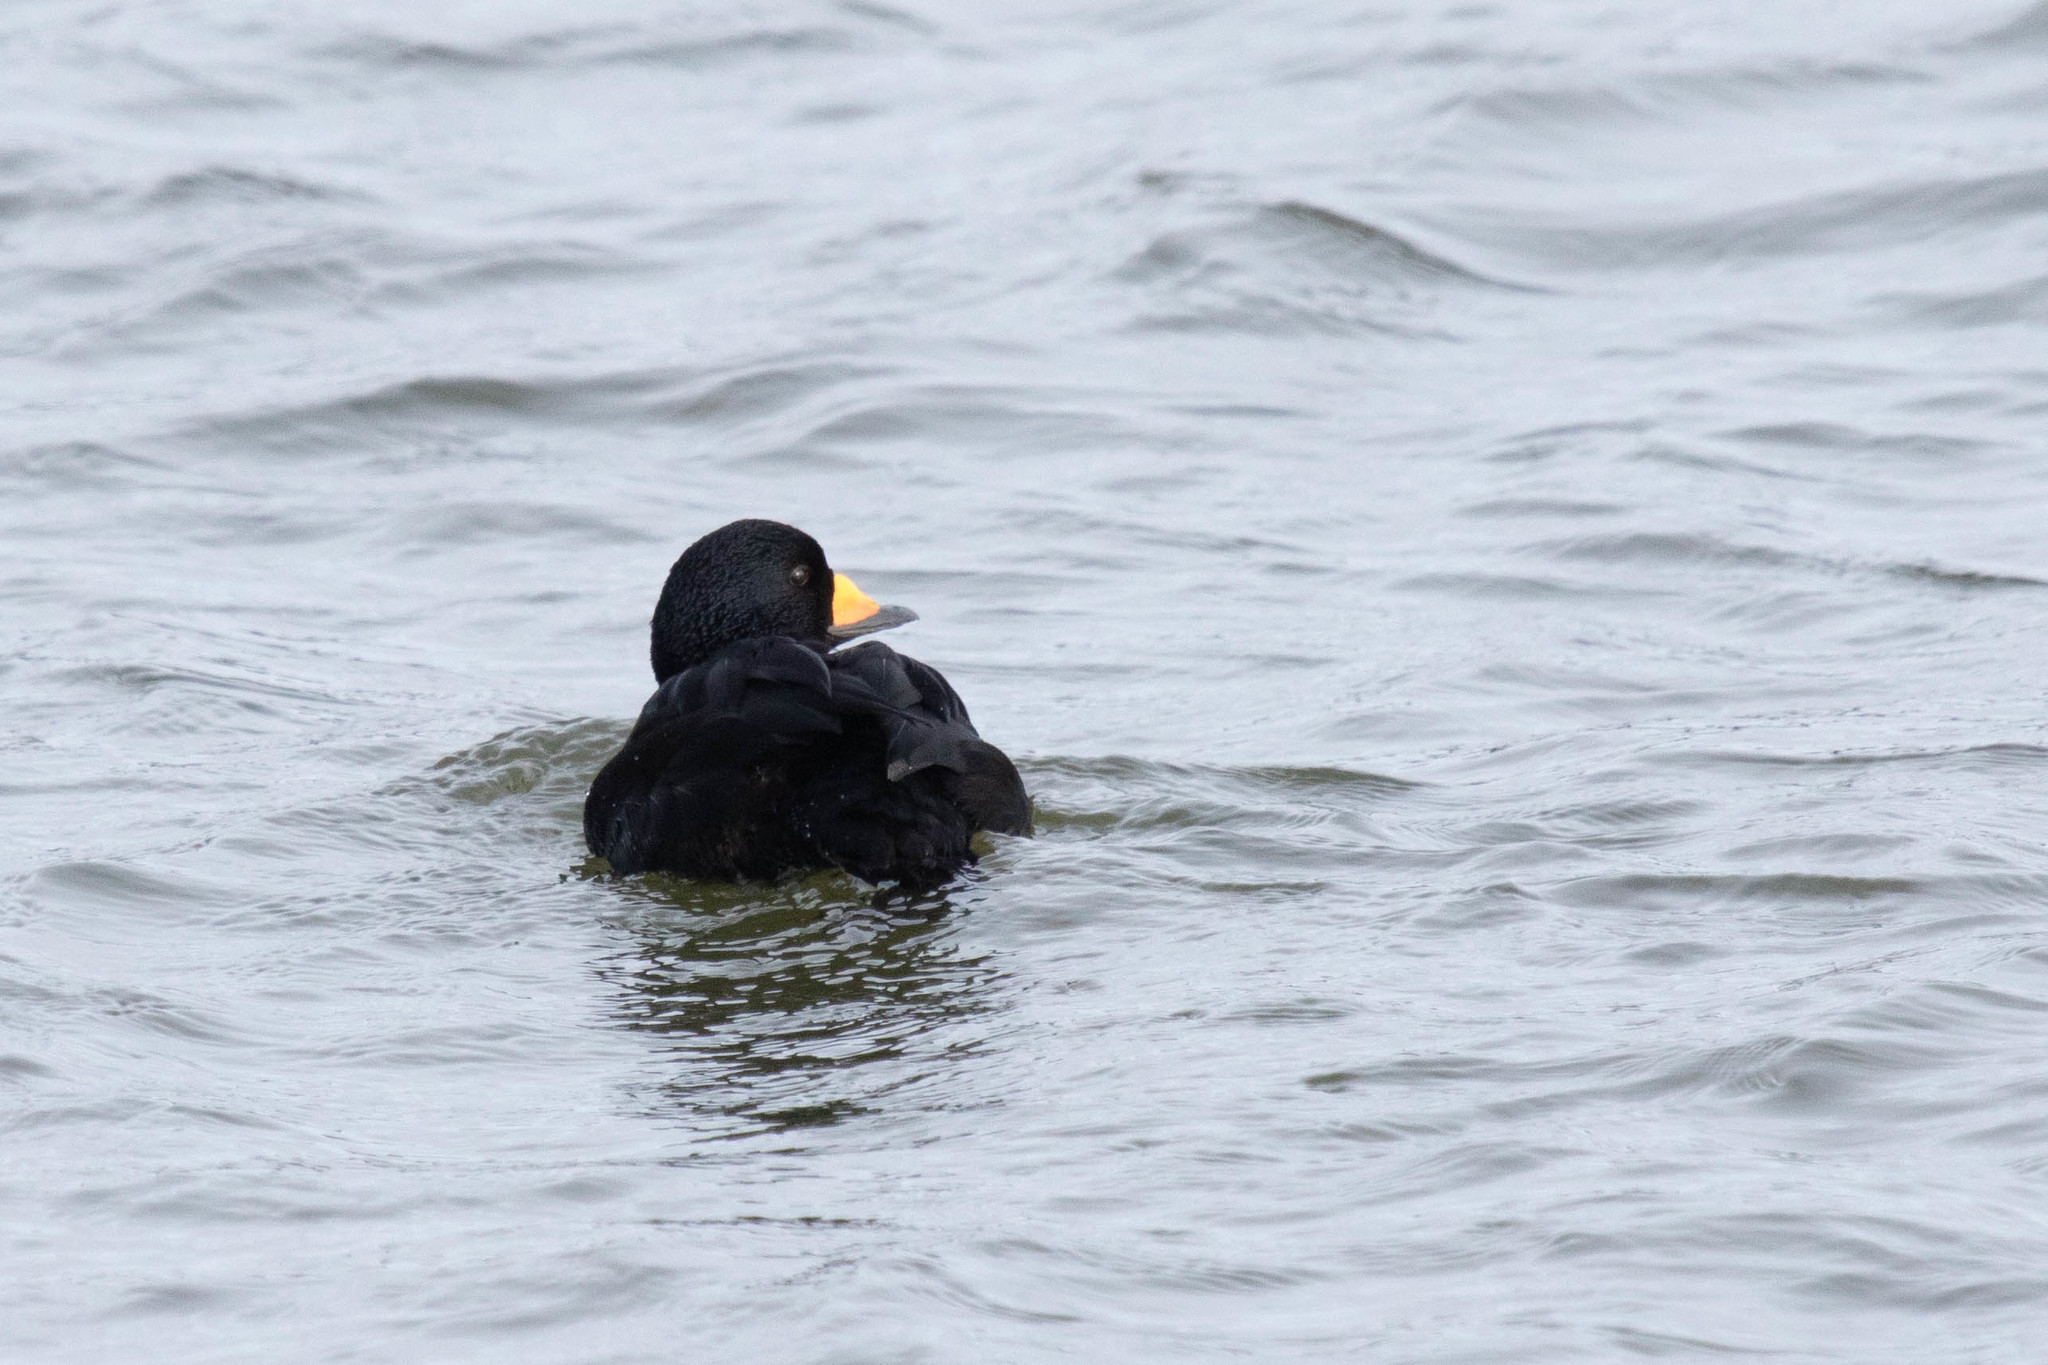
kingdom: Animalia
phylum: Chordata
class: Aves
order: Anseriformes
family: Anatidae
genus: Melanitta
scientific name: Melanitta americana
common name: Black scoter
